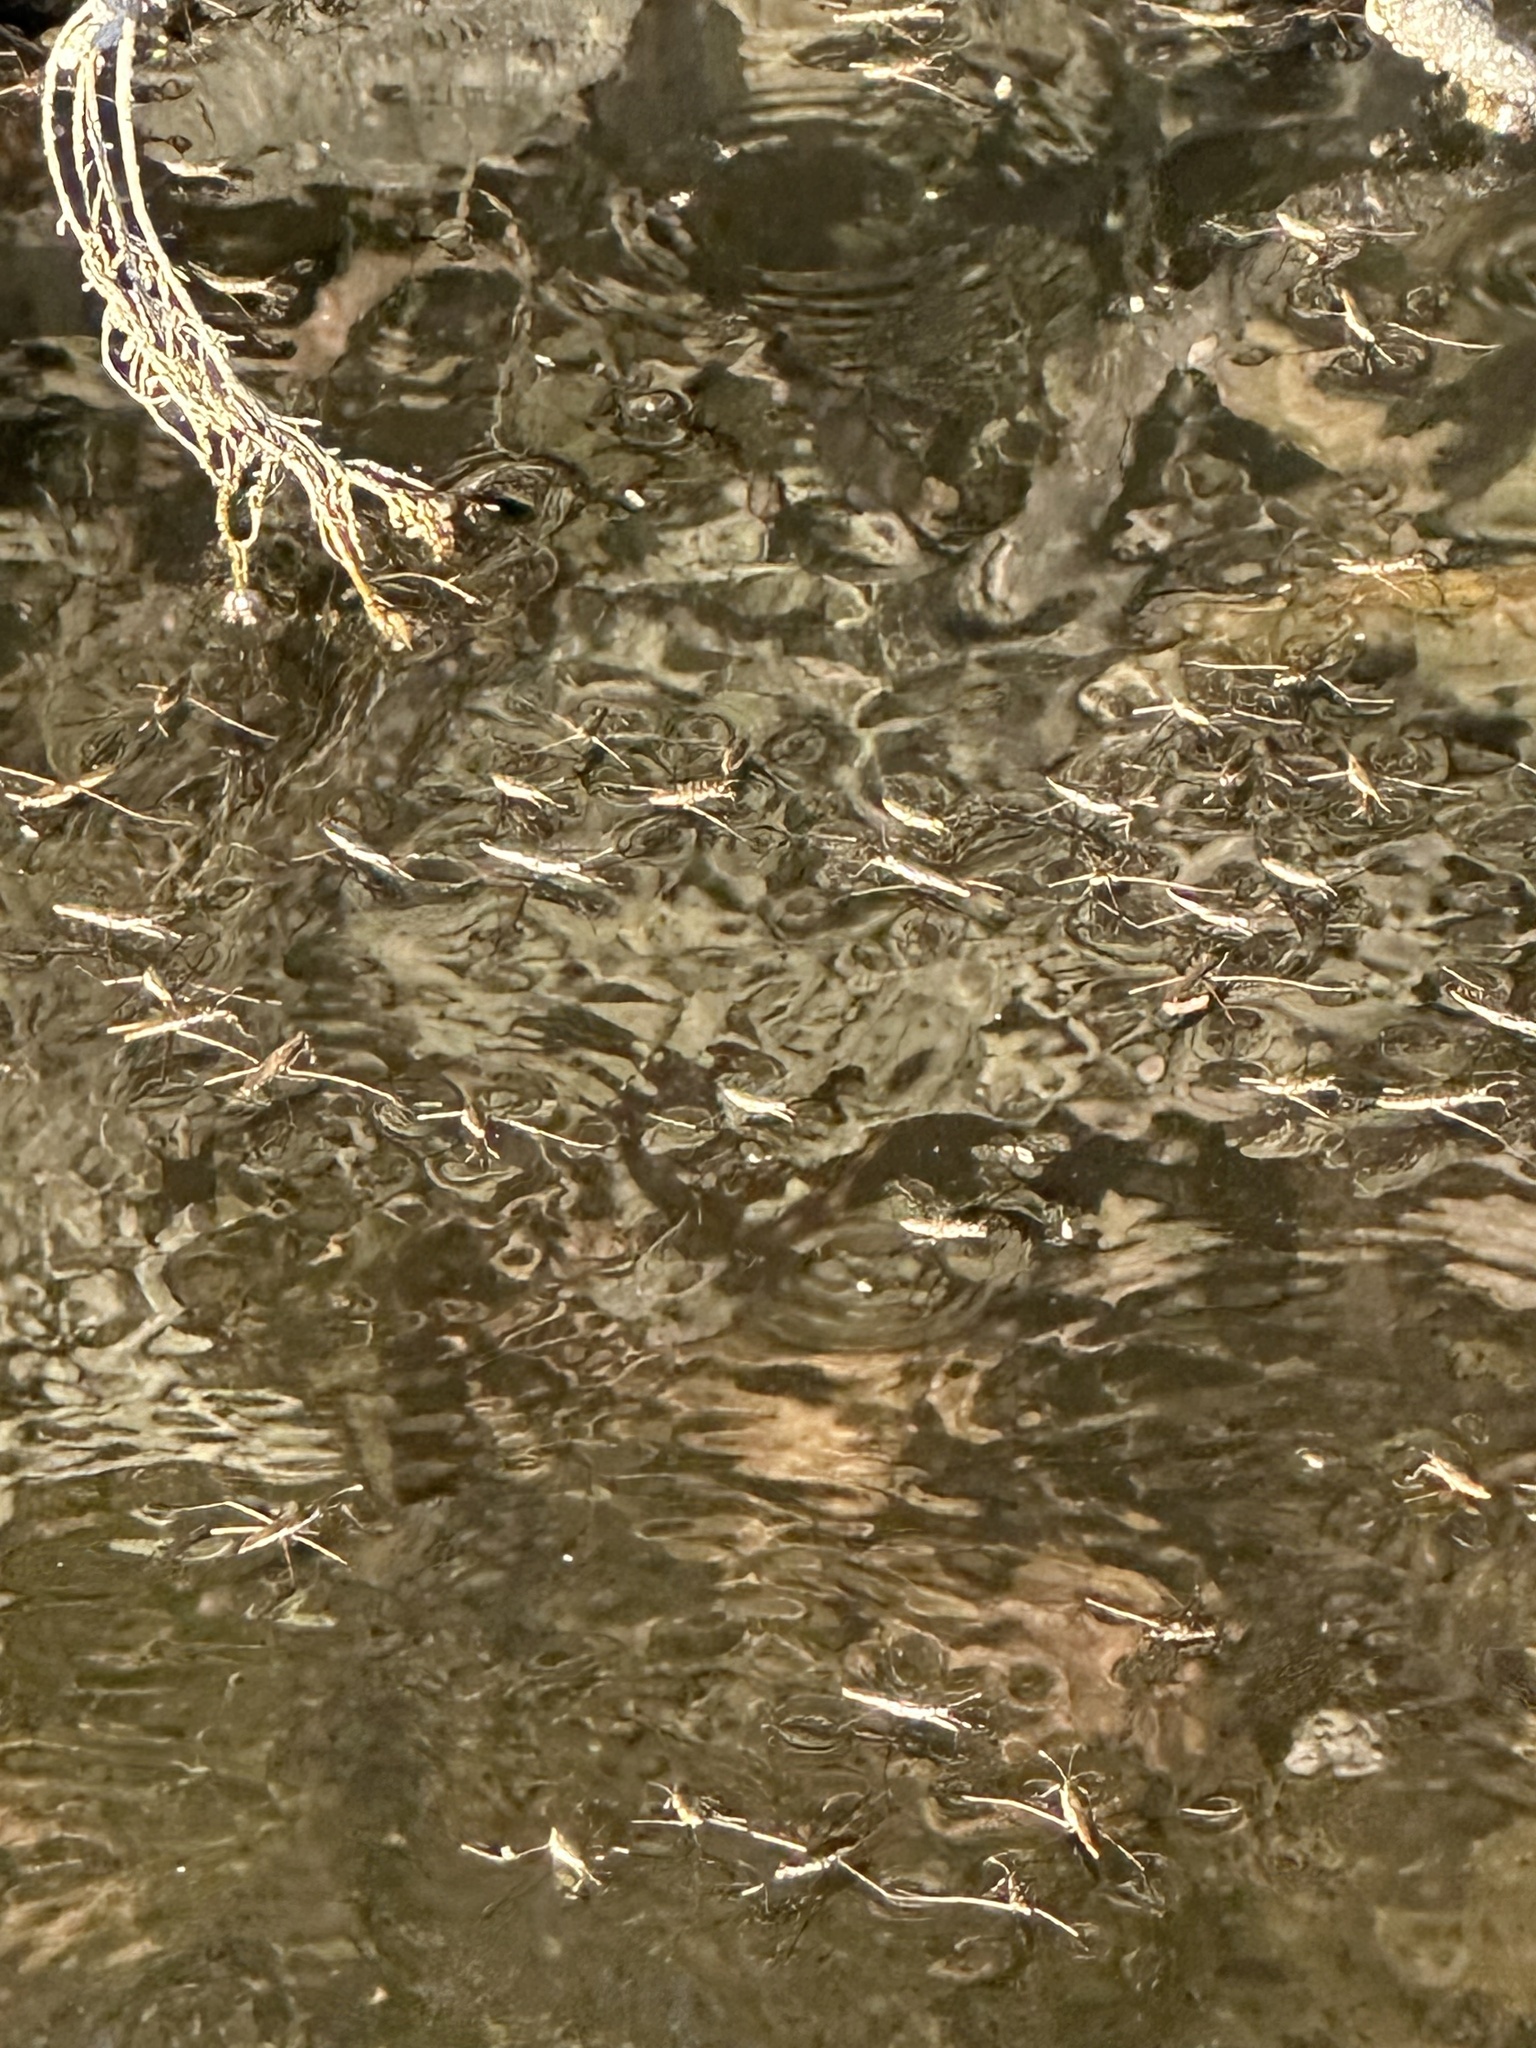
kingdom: Animalia
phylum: Arthropoda
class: Insecta
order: Hemiptera
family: Gerridae
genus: Aquarius
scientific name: Aquarius remigis
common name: Common water strider
